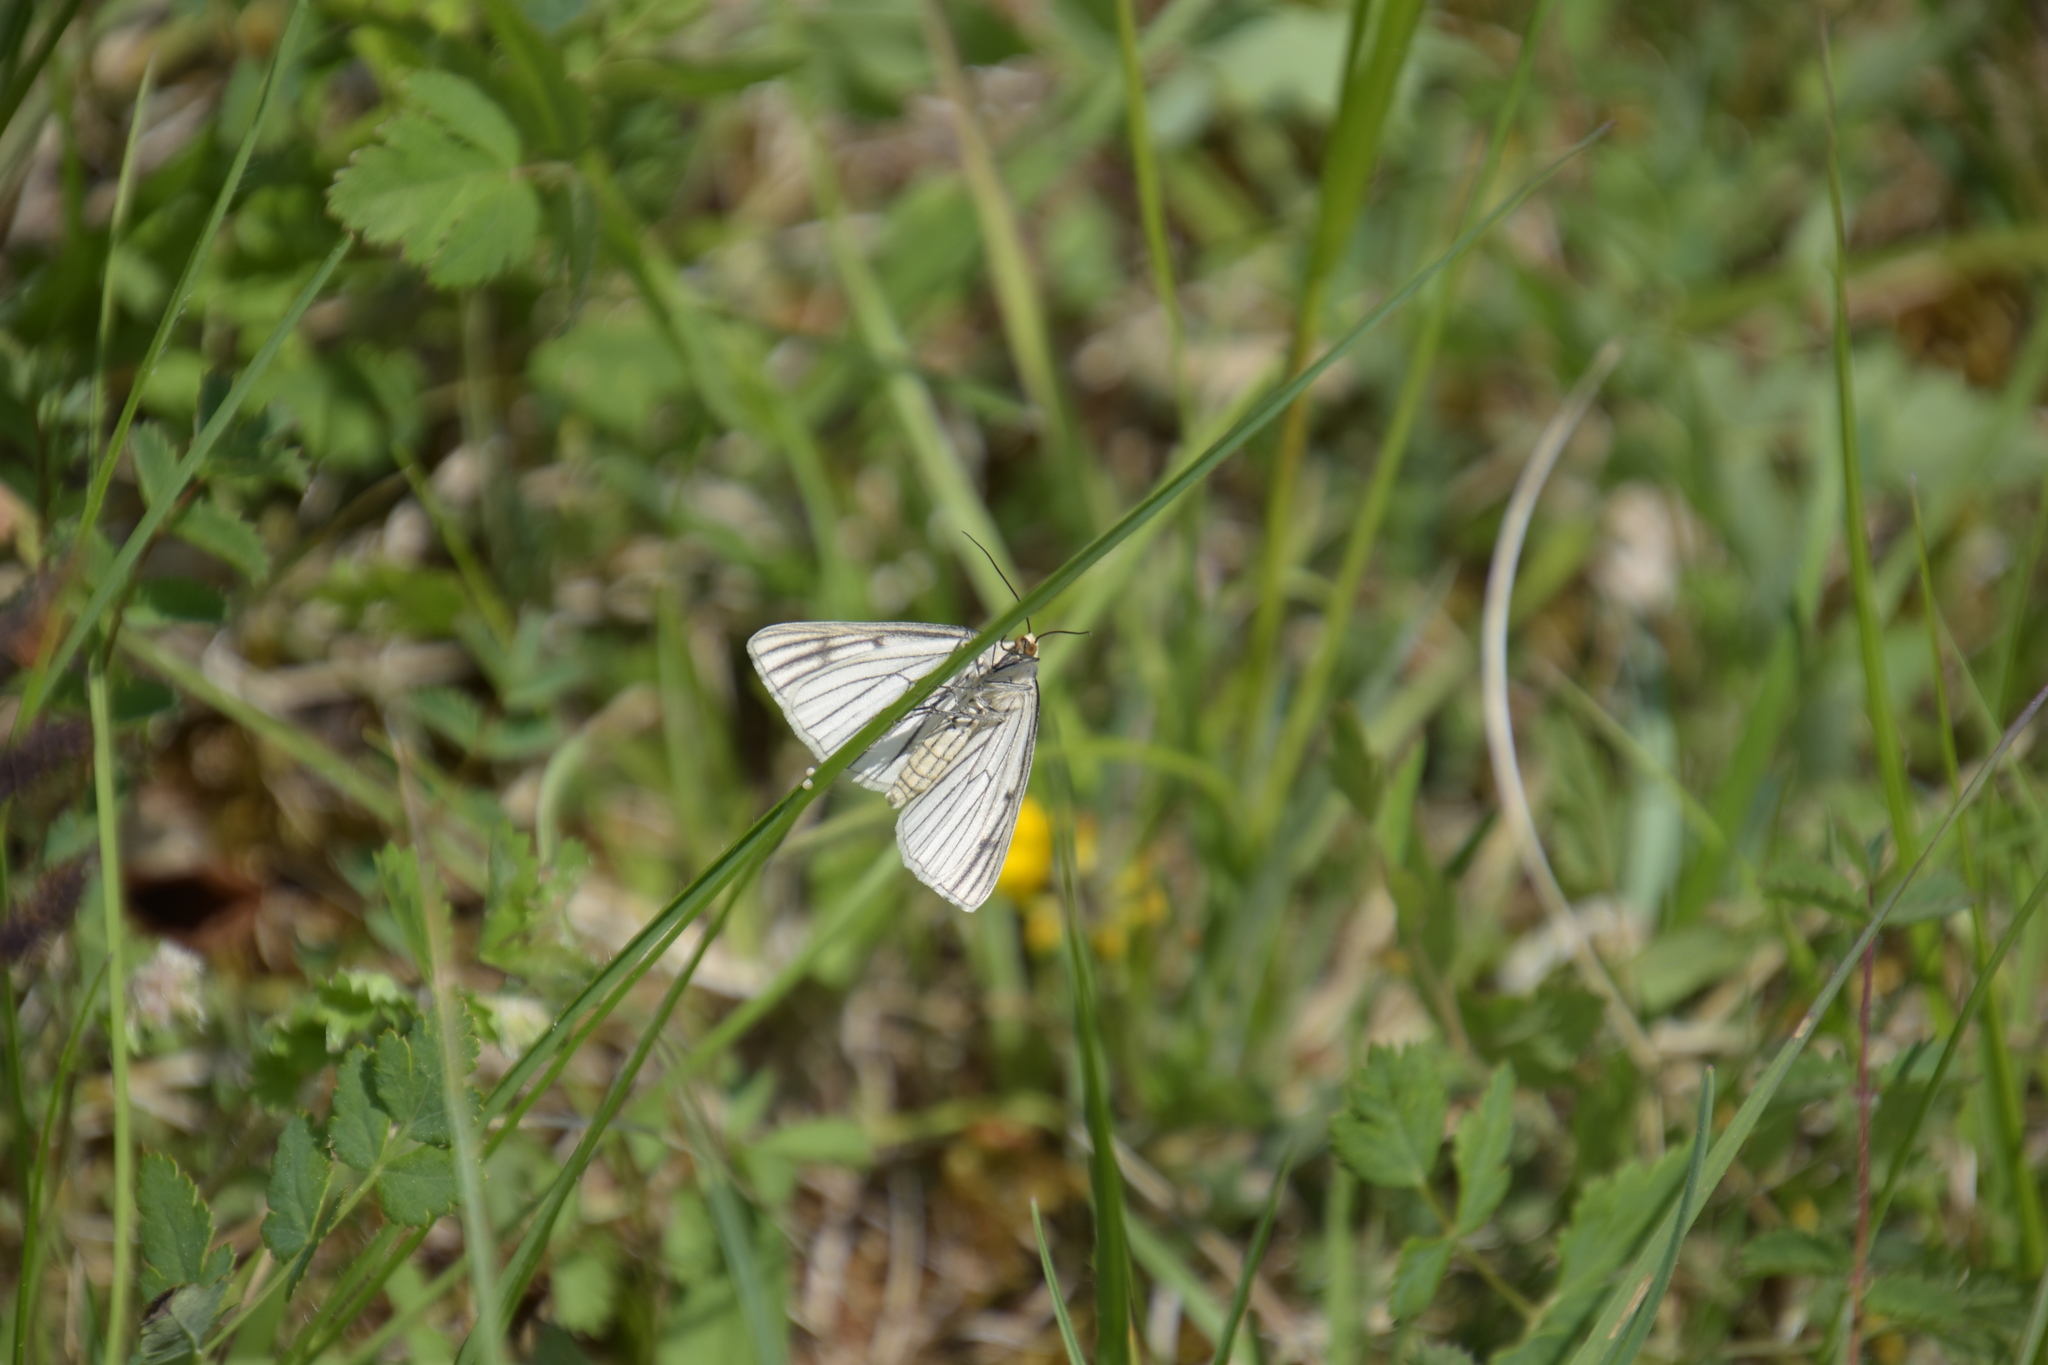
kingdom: Animalia
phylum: Arthropoda
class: Insecta
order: Lepidoptera
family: Geometridae
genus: Siona
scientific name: Siona lineata
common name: Black-veined moth
